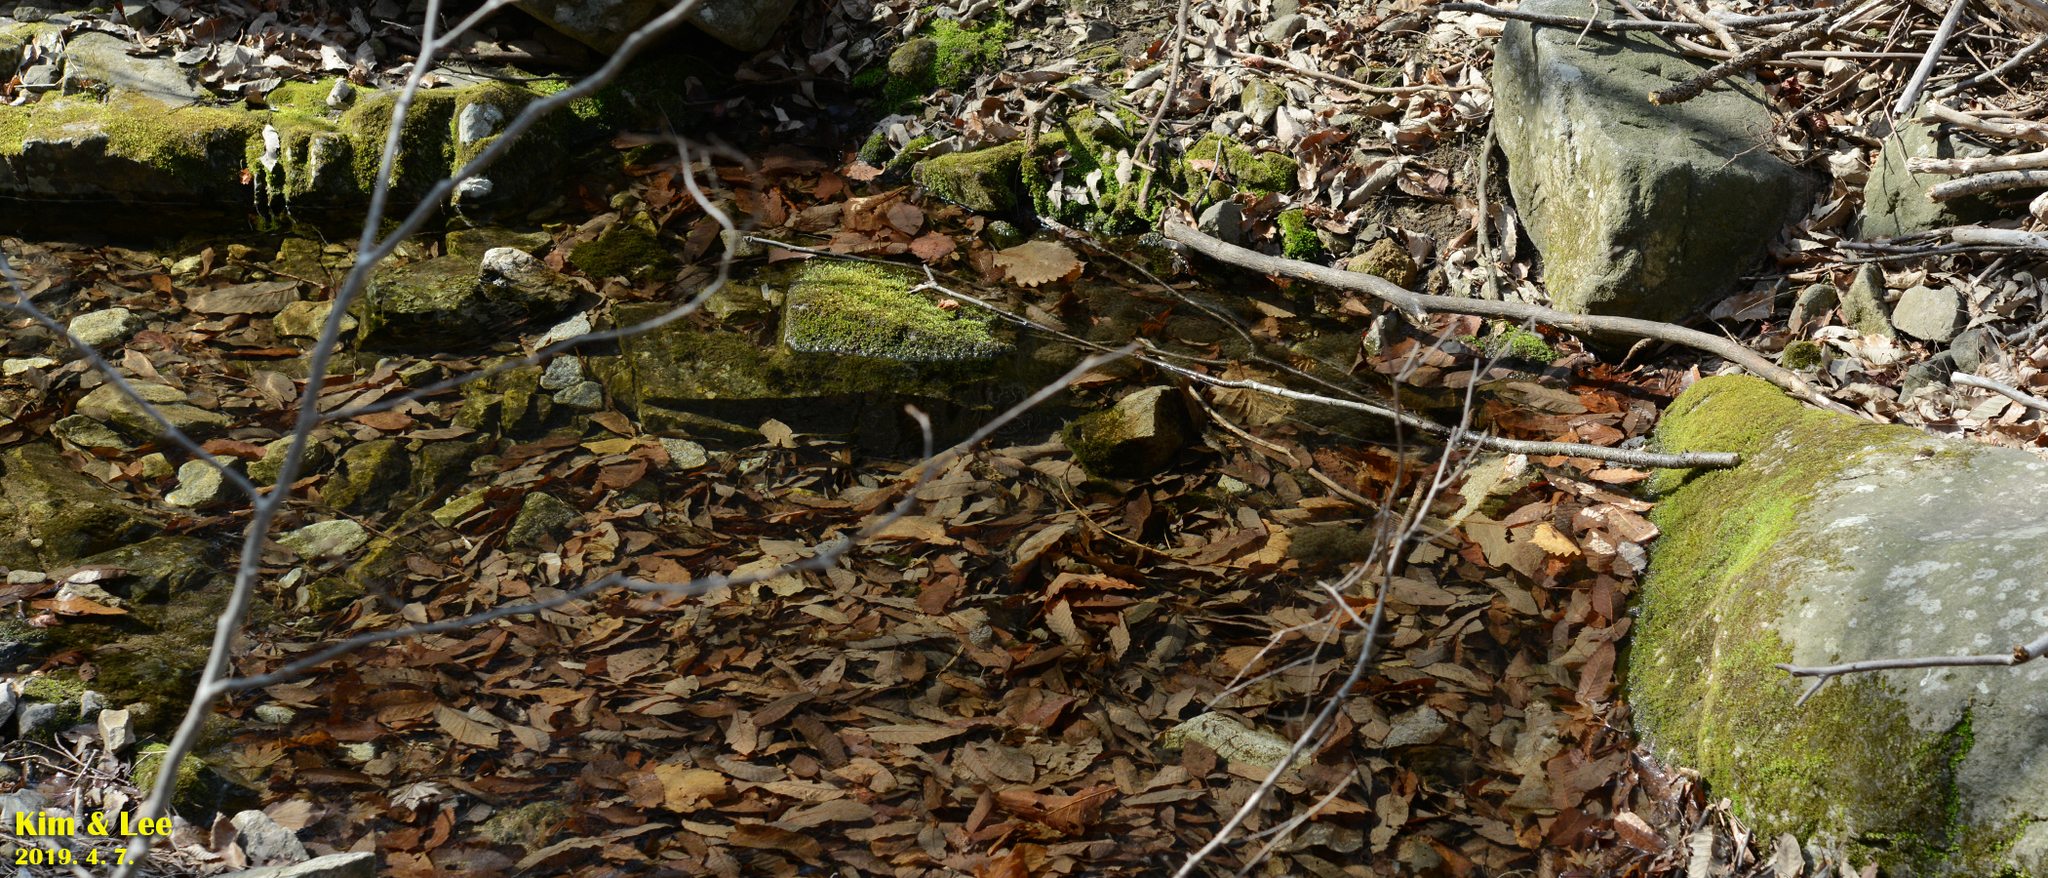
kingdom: Animalia
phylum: Chordata
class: Amphibia
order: Anura
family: Ranidae
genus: Rana
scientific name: Rana huanrenensis
